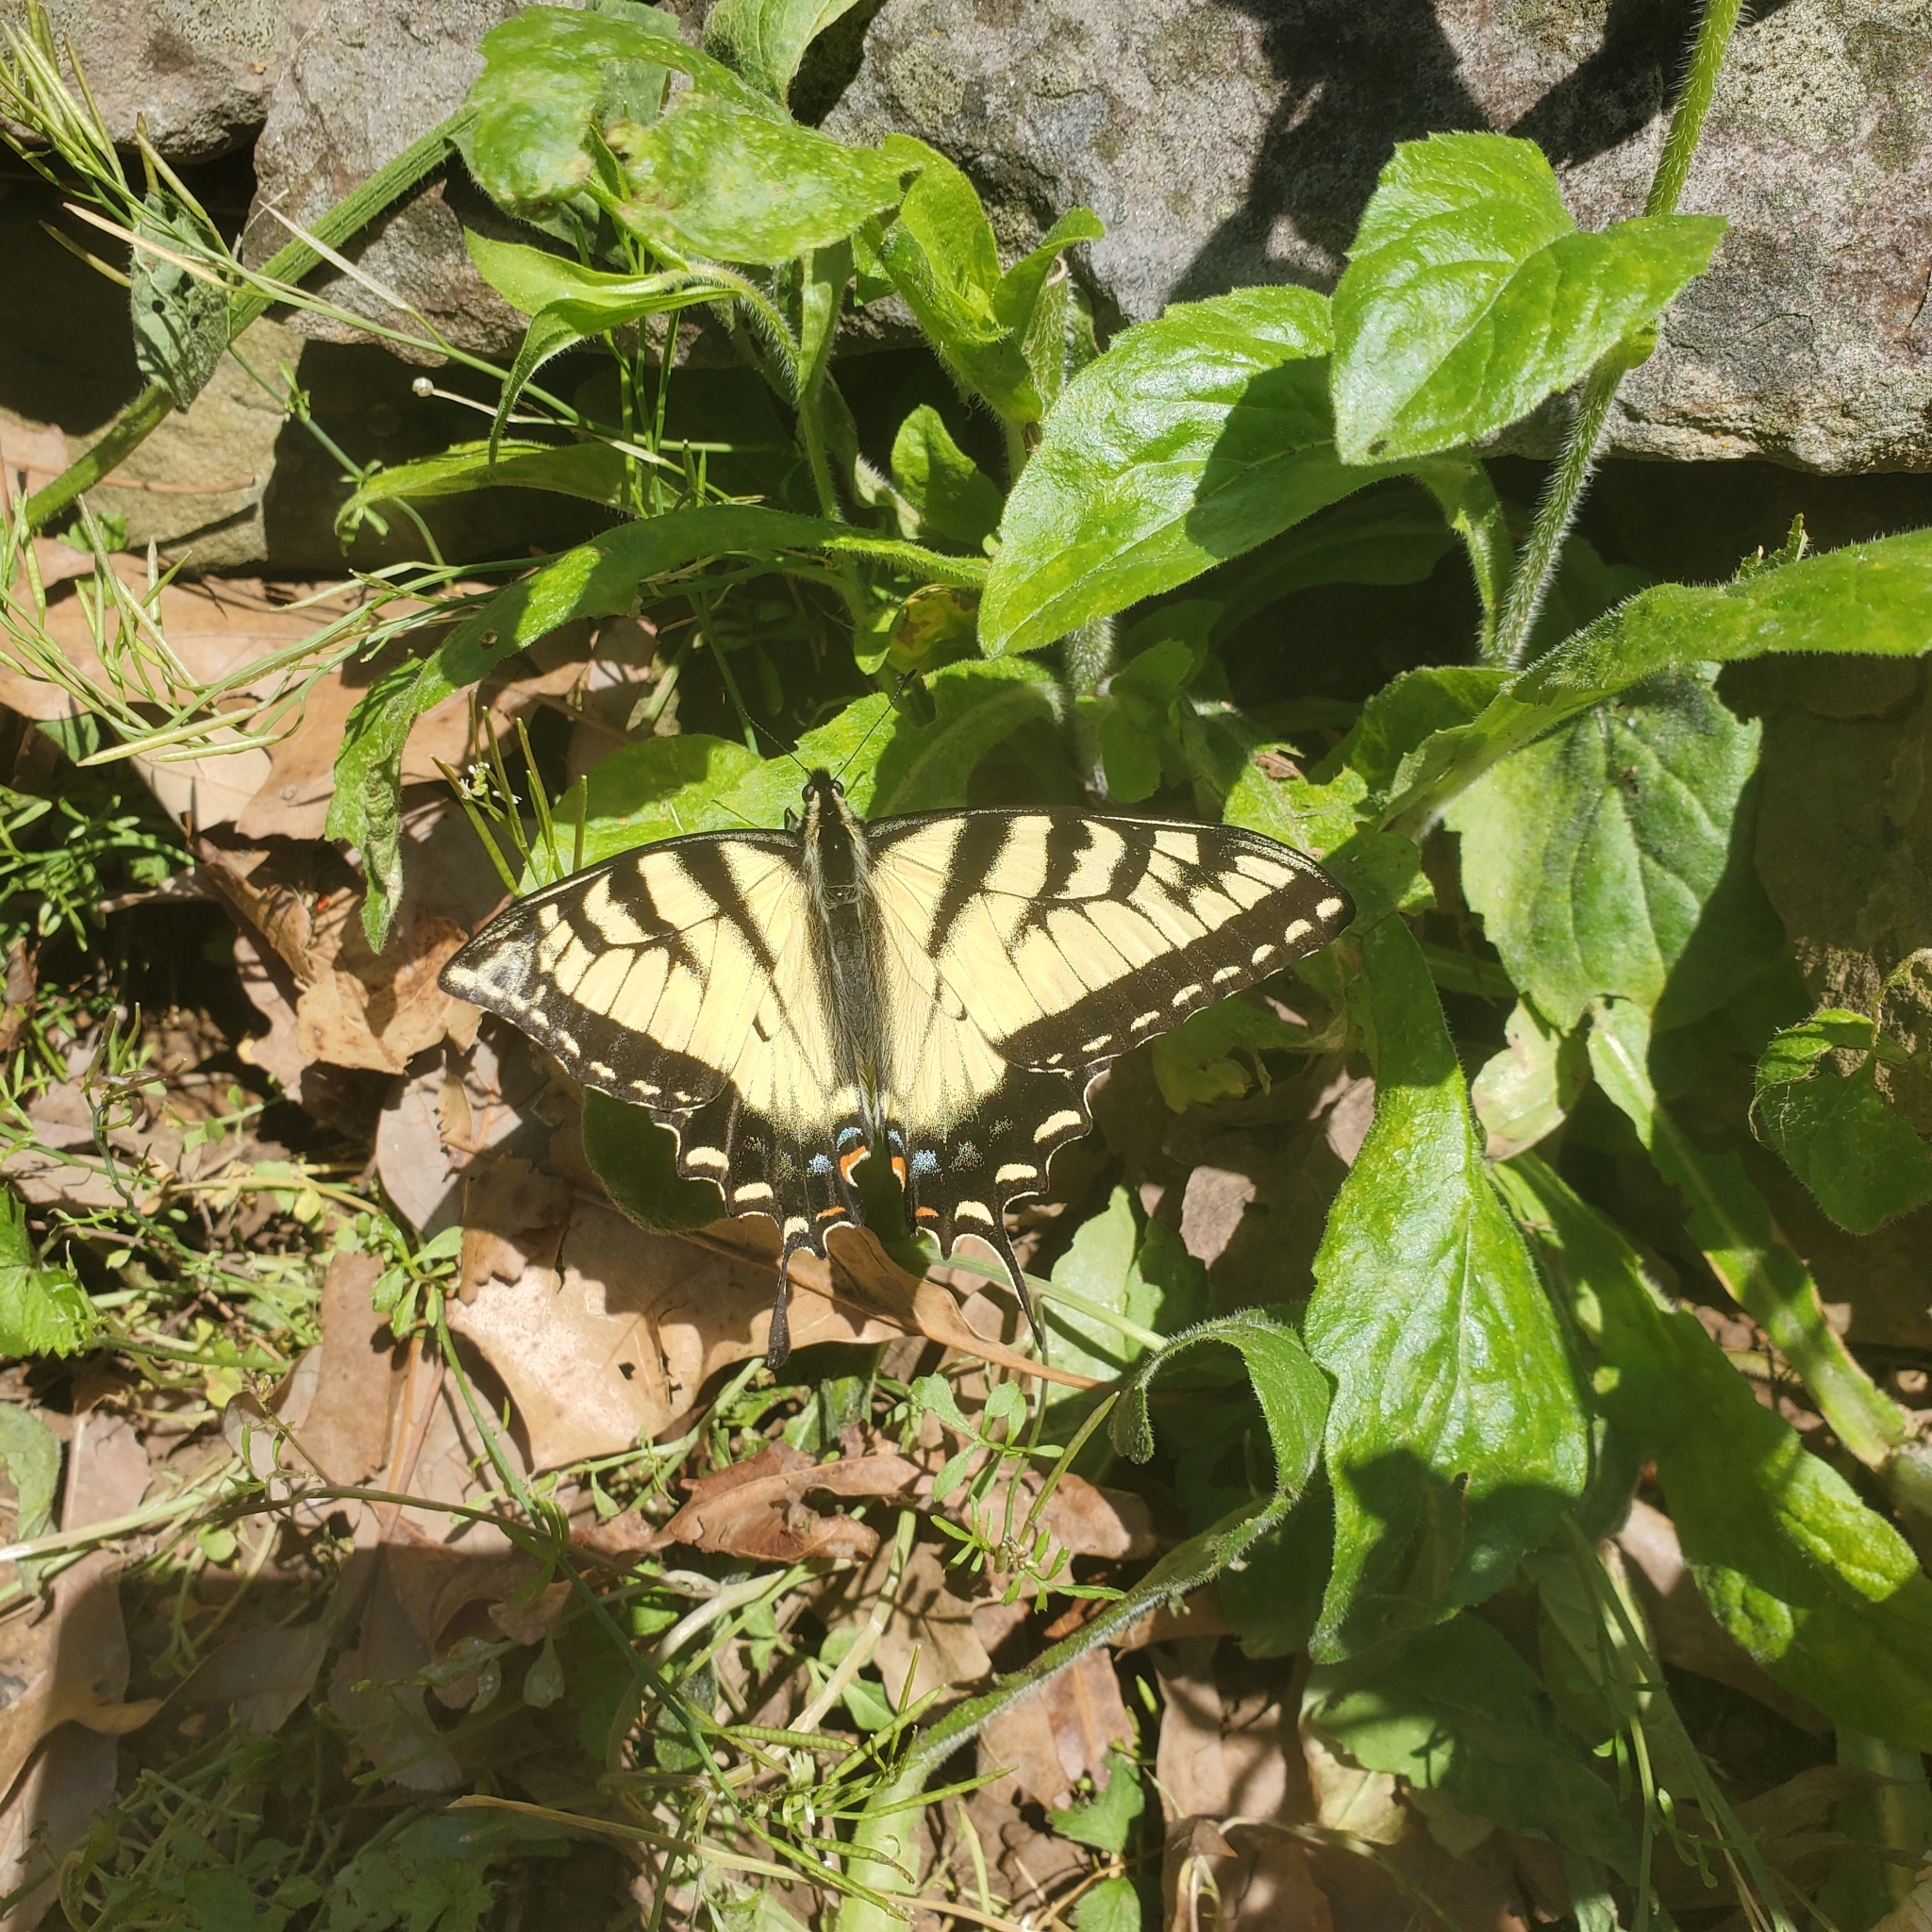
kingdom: Animalia
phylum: Arthropoda
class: Insecta
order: Lepidoptera
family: Papilionidae
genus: Papilio
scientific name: Papilio glaucus
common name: Tiger swallowtail
